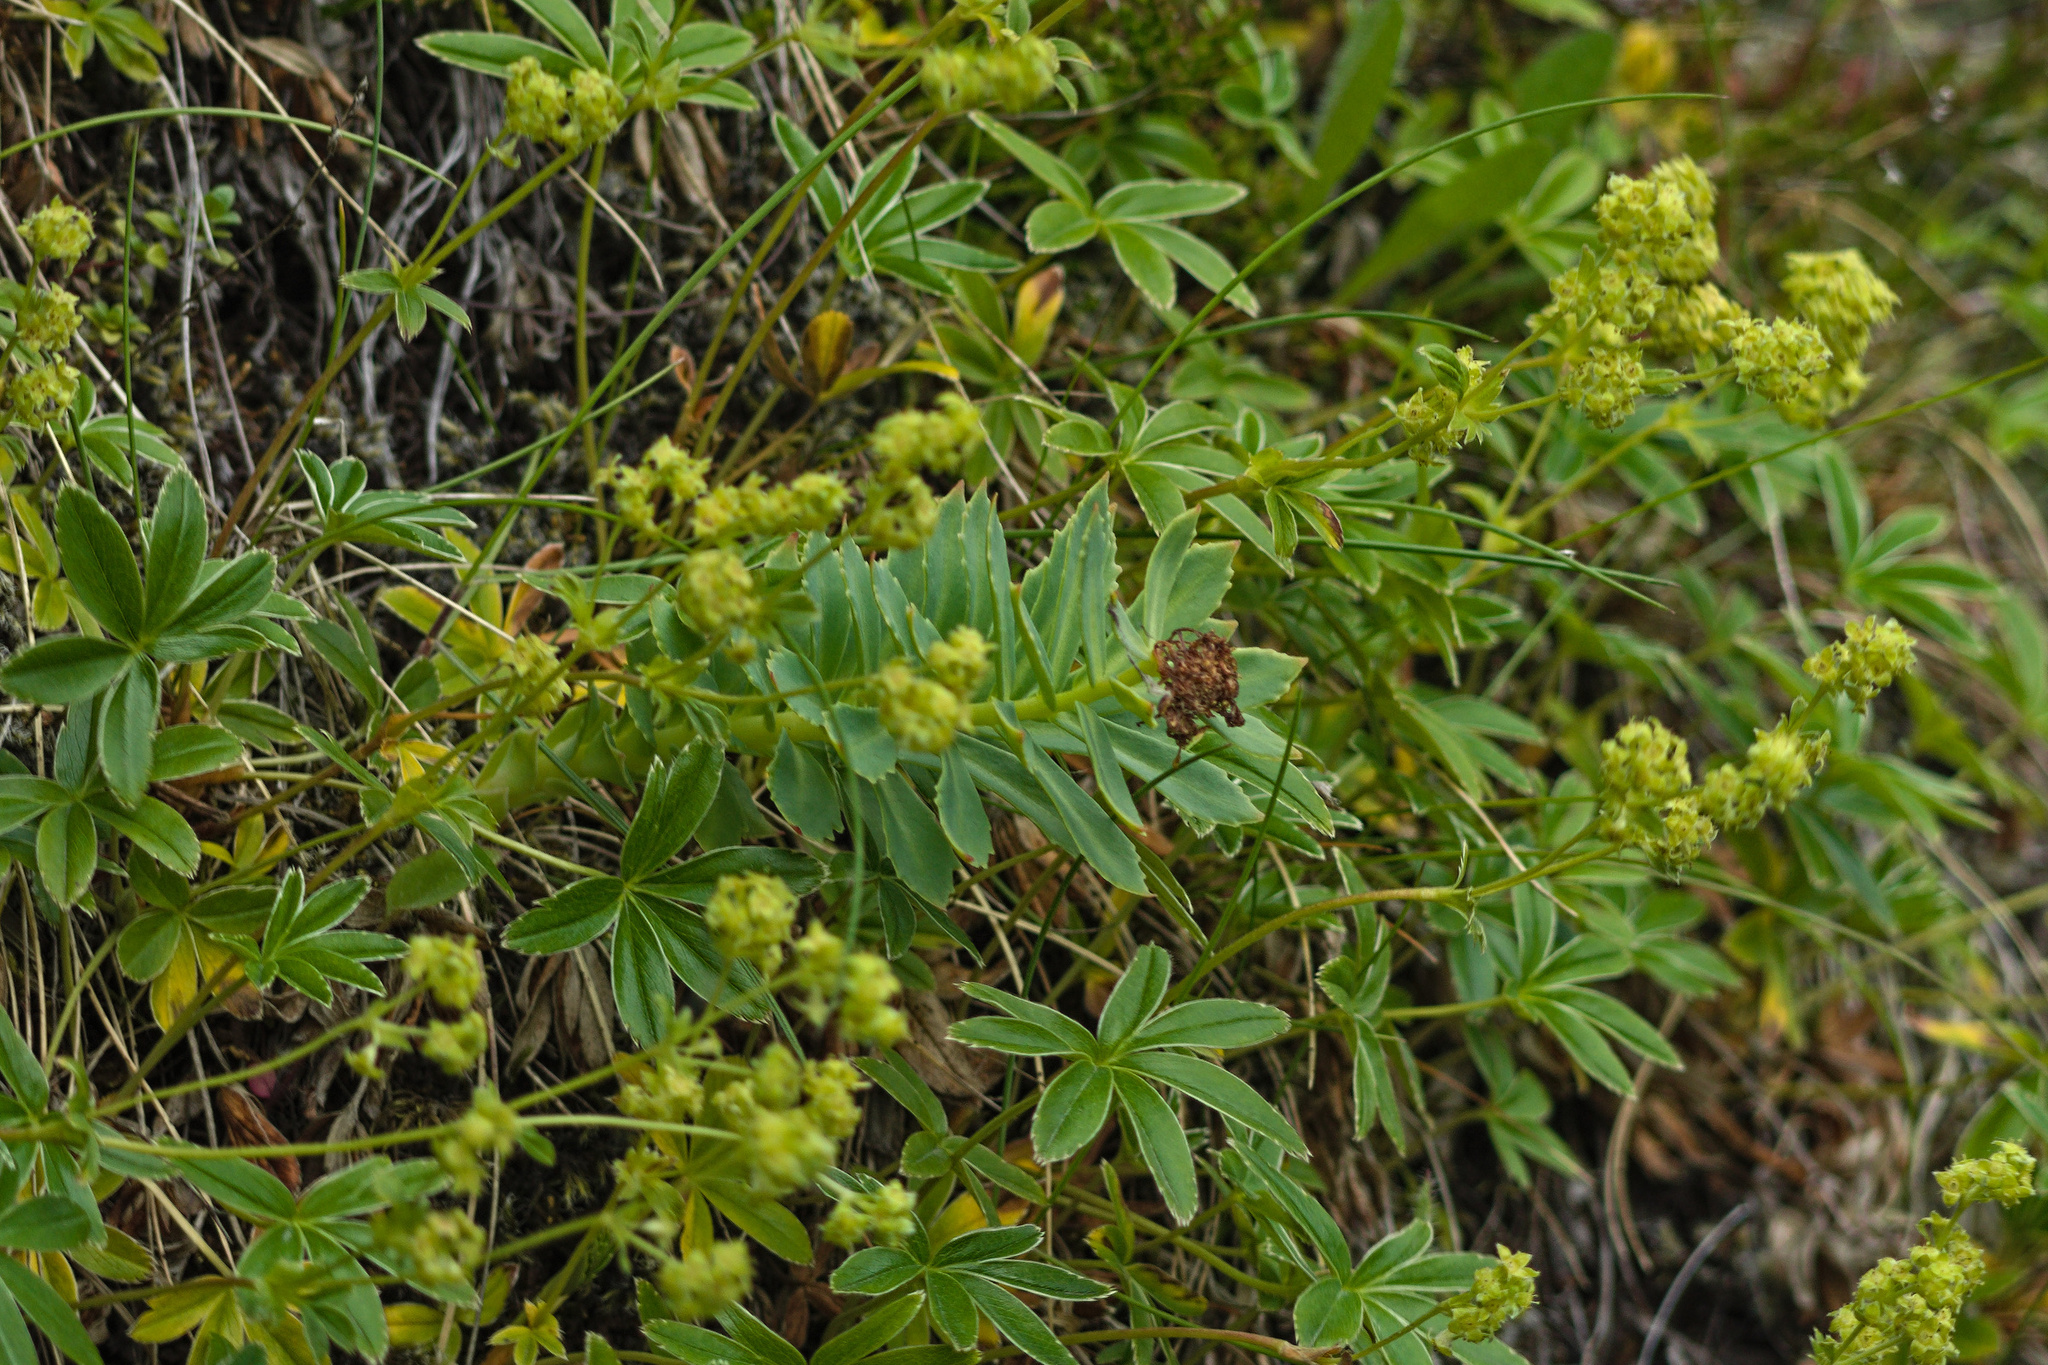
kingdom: Plantae
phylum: Tracheophyta
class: Magnoliopsida
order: Rosales
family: Rosaceae
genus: Alchemilla
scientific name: Alchemilla alpina
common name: Alpine lady's-mantle
